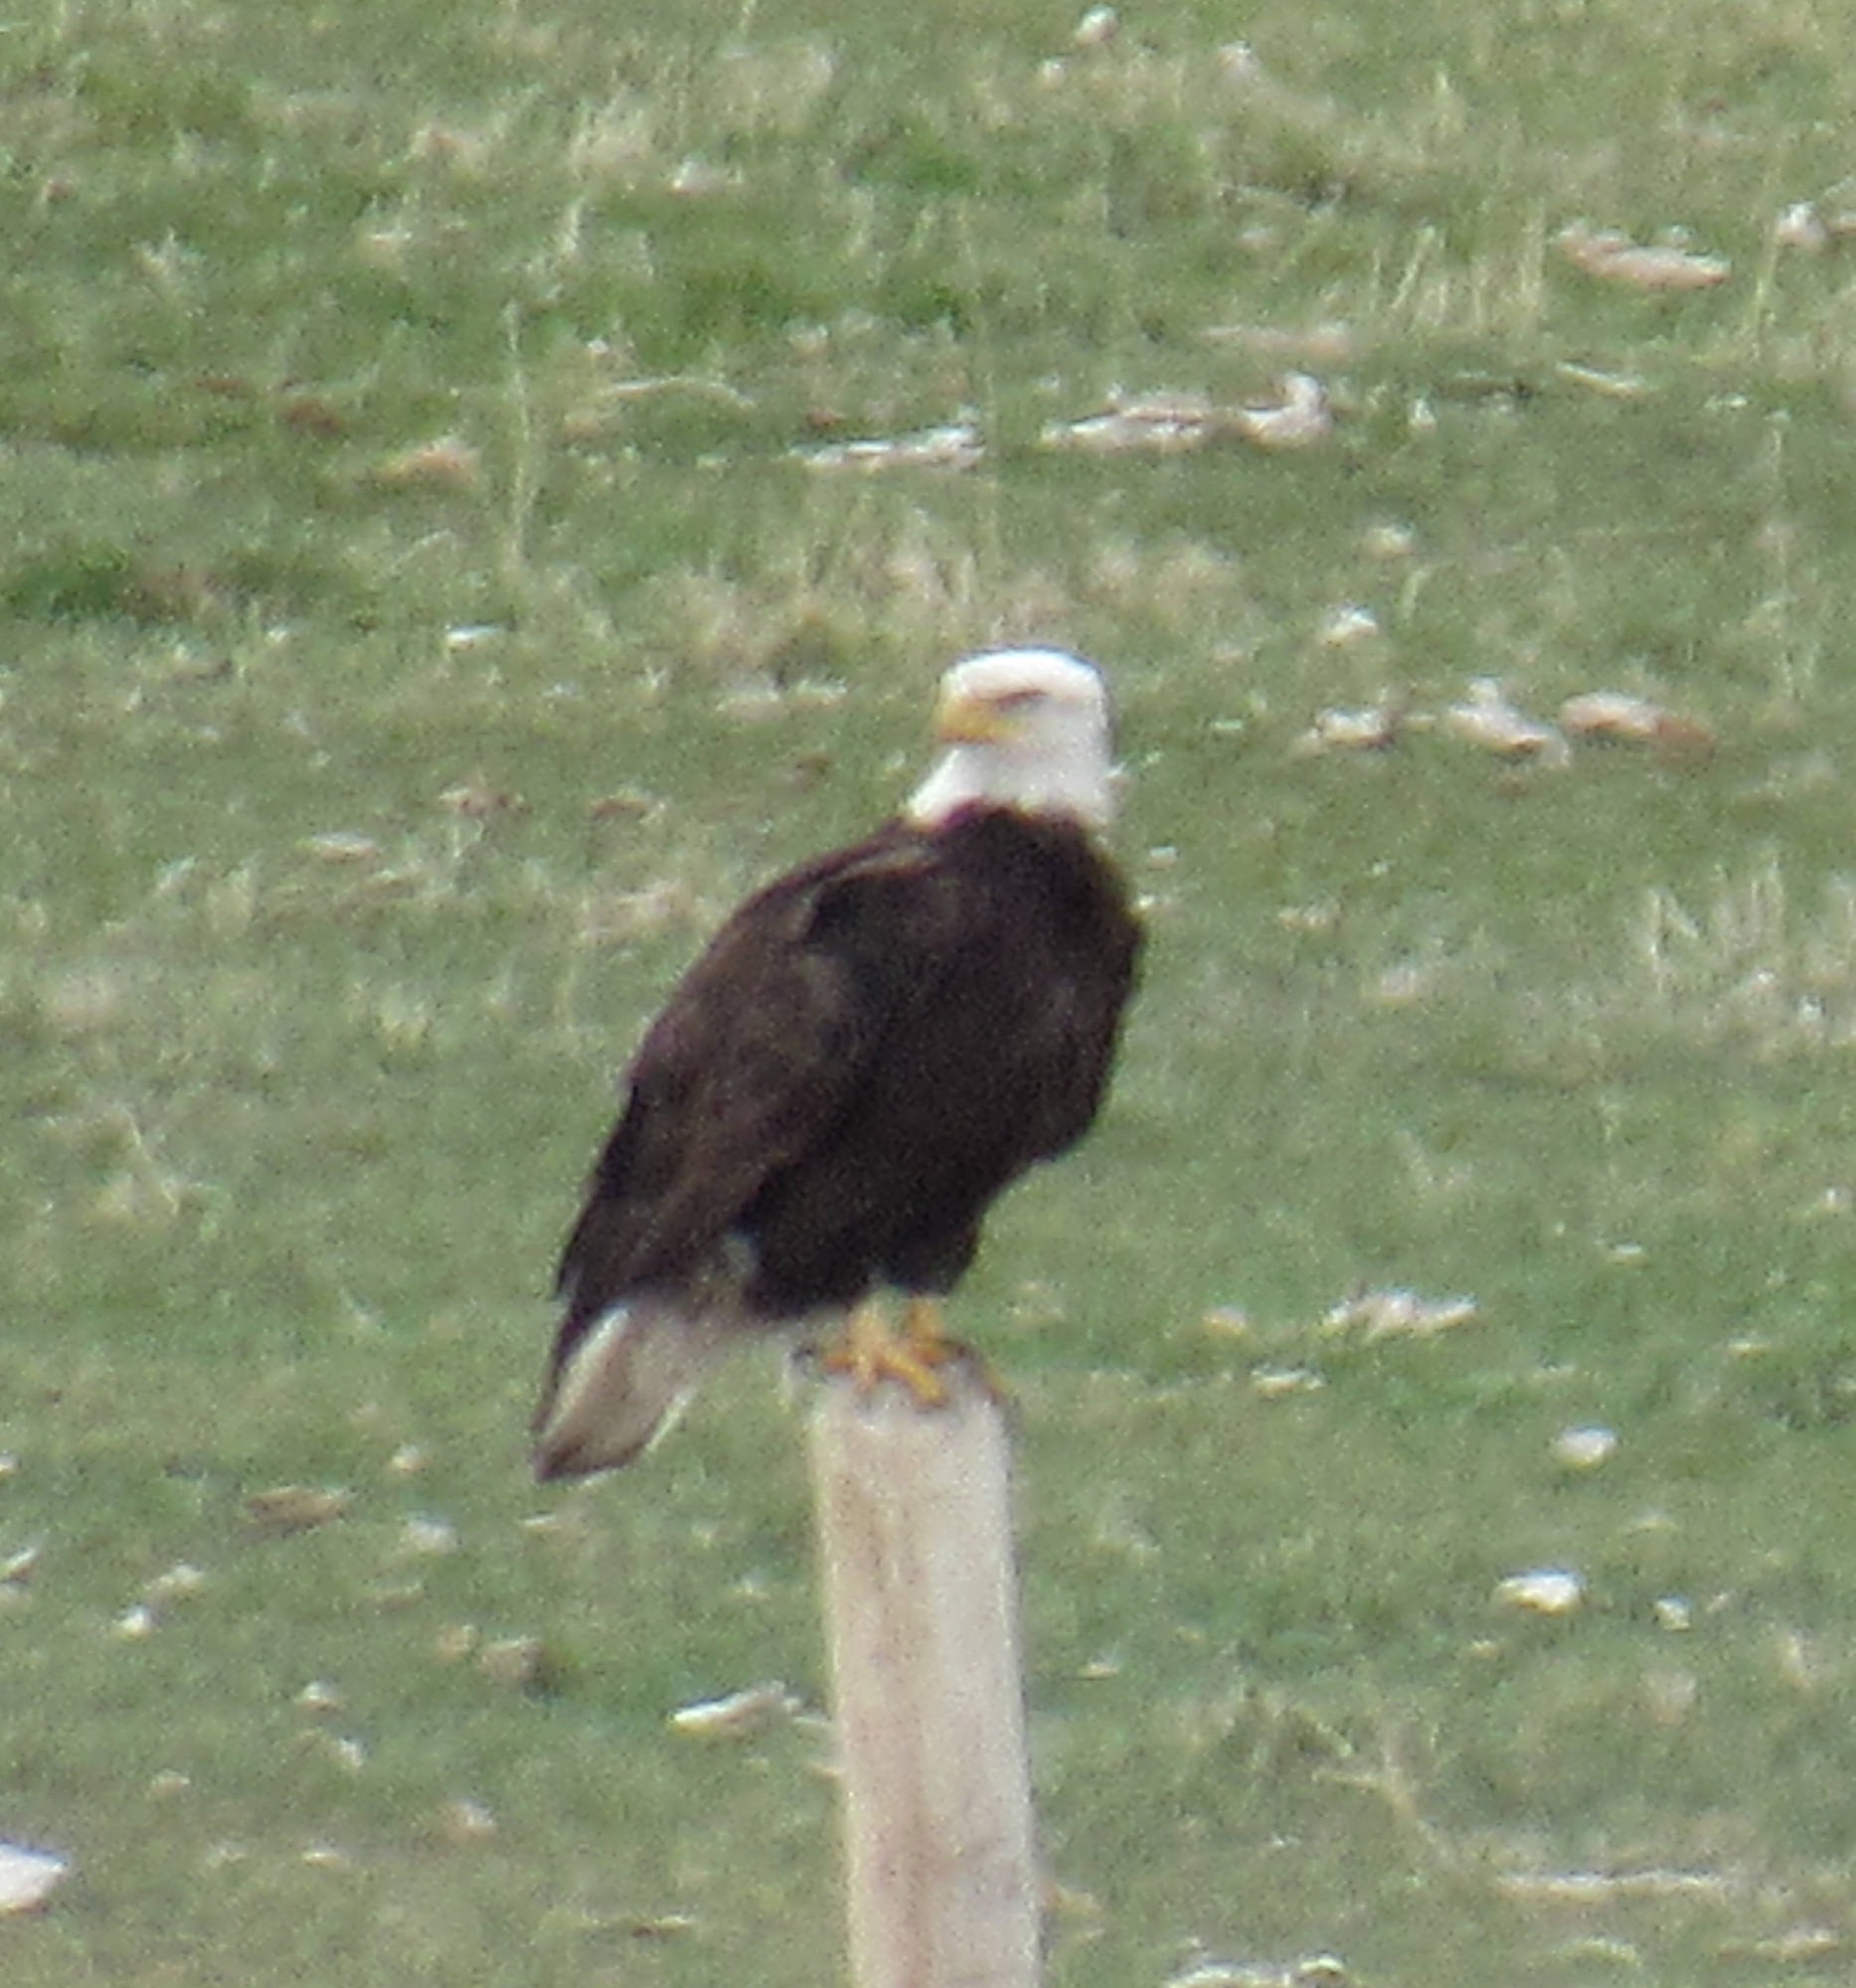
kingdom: Animalia
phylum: Chordata
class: Aves
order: Accipitriformes
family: Accipitridae
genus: Haliaeetus
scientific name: Haliaeetus leucocephalus
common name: Bald eagle
